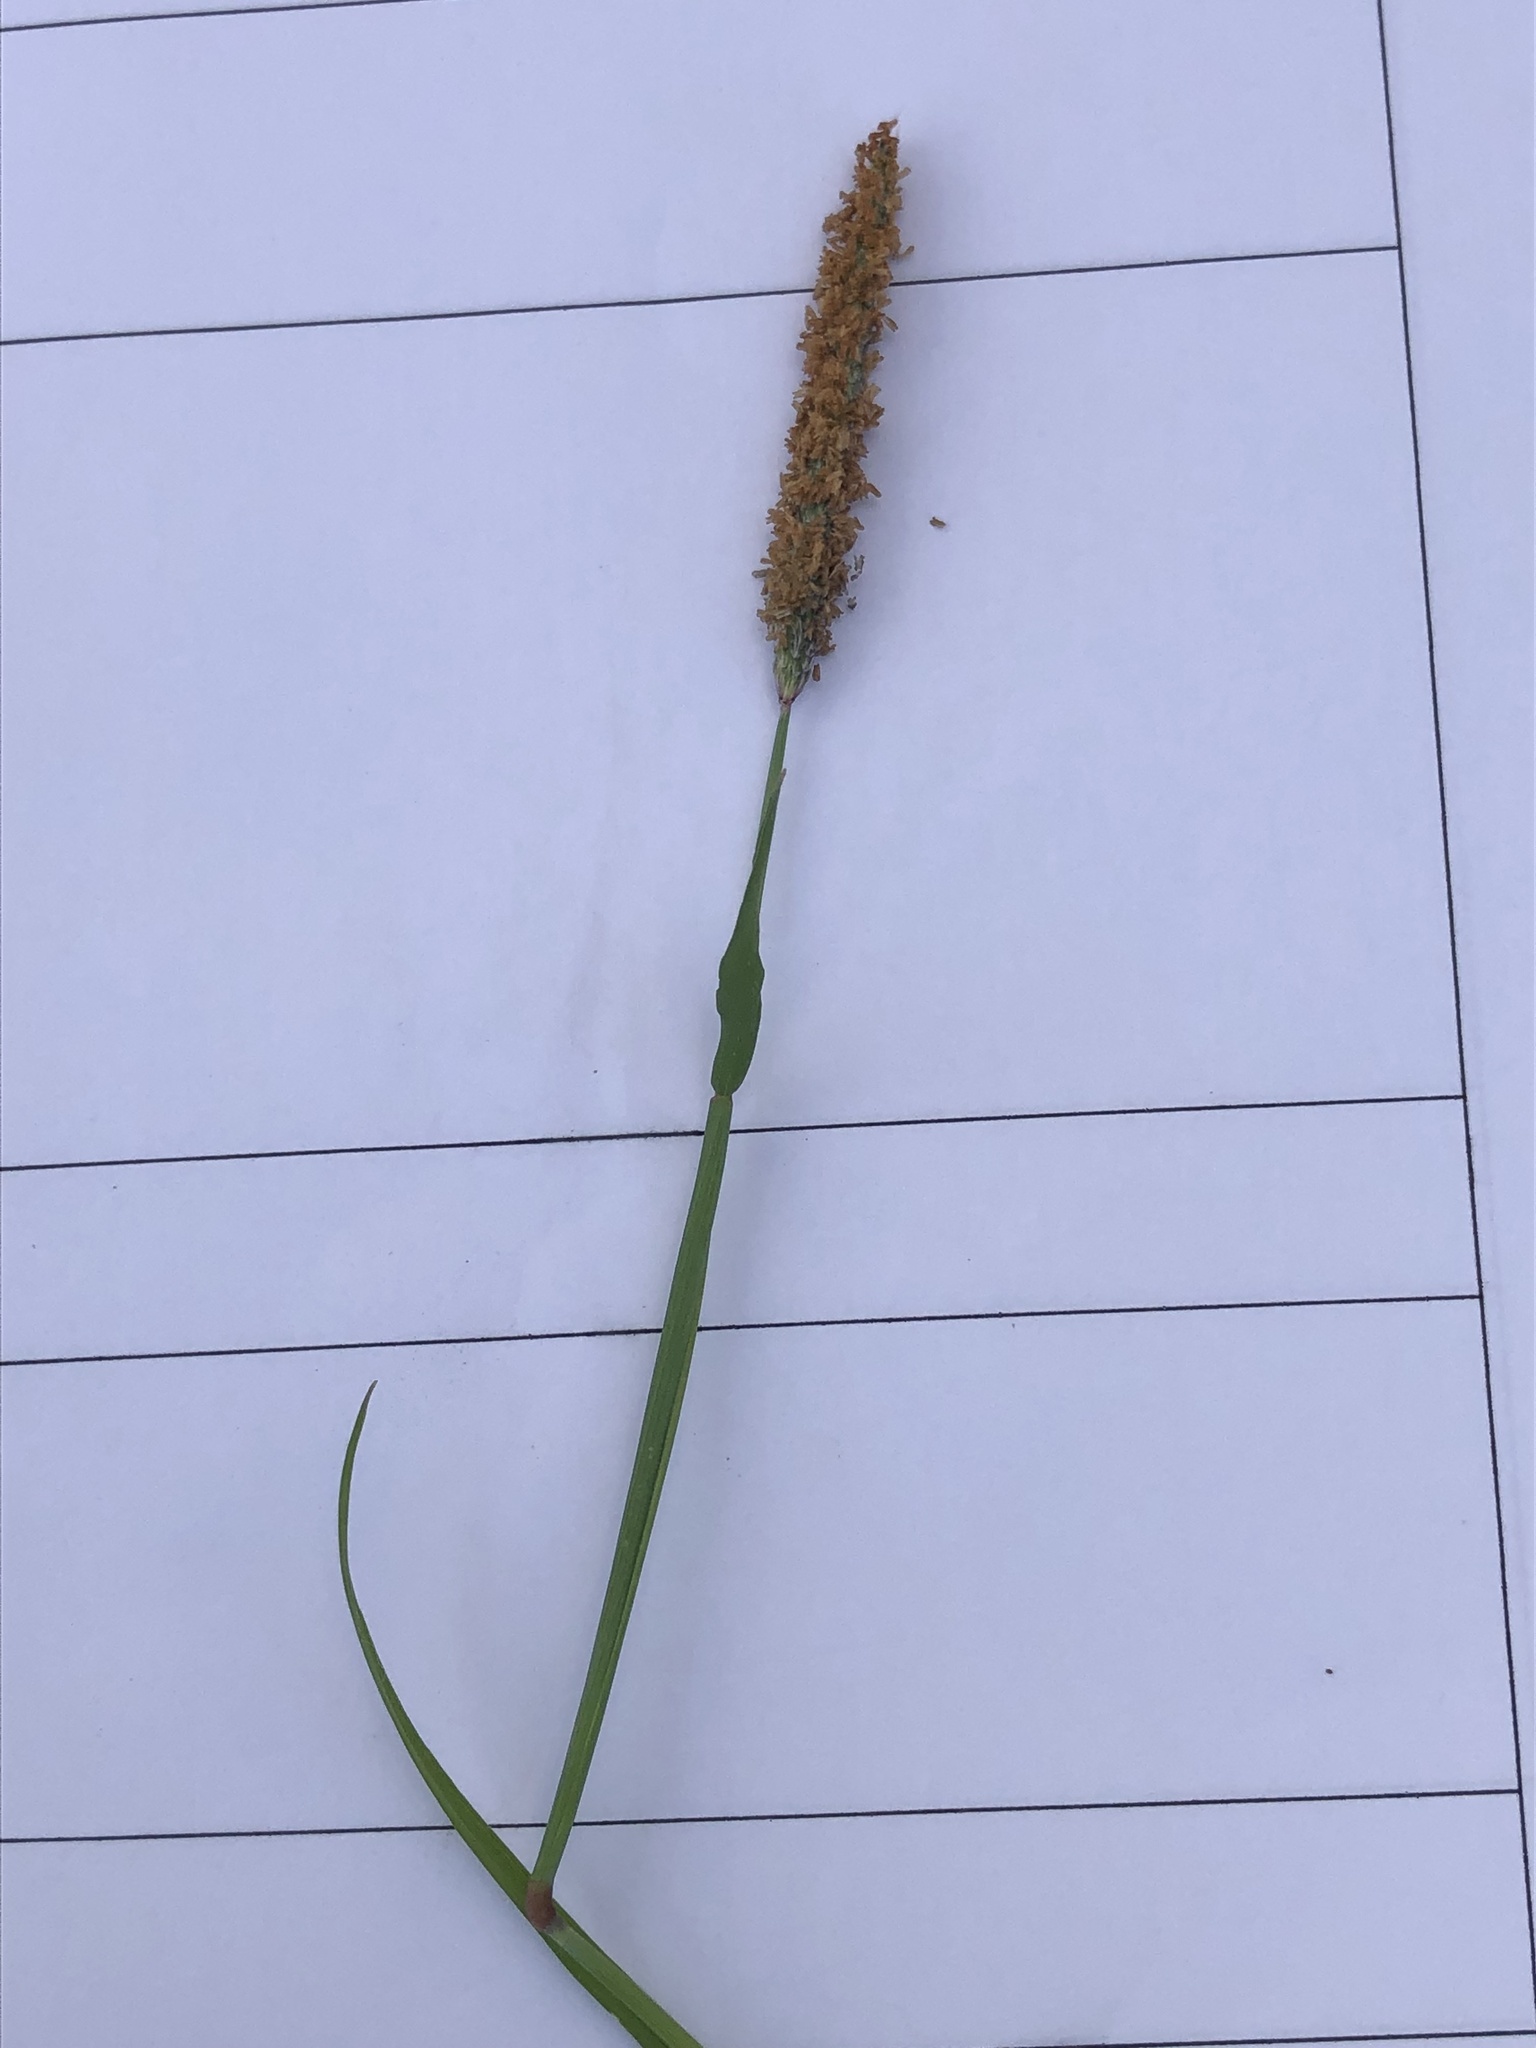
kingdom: Plantae
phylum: Tracheophyta
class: Liliopsida
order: Poales
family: Poaceae
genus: Alopecurus
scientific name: Alopecurus geniculatus
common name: Water foxtail
